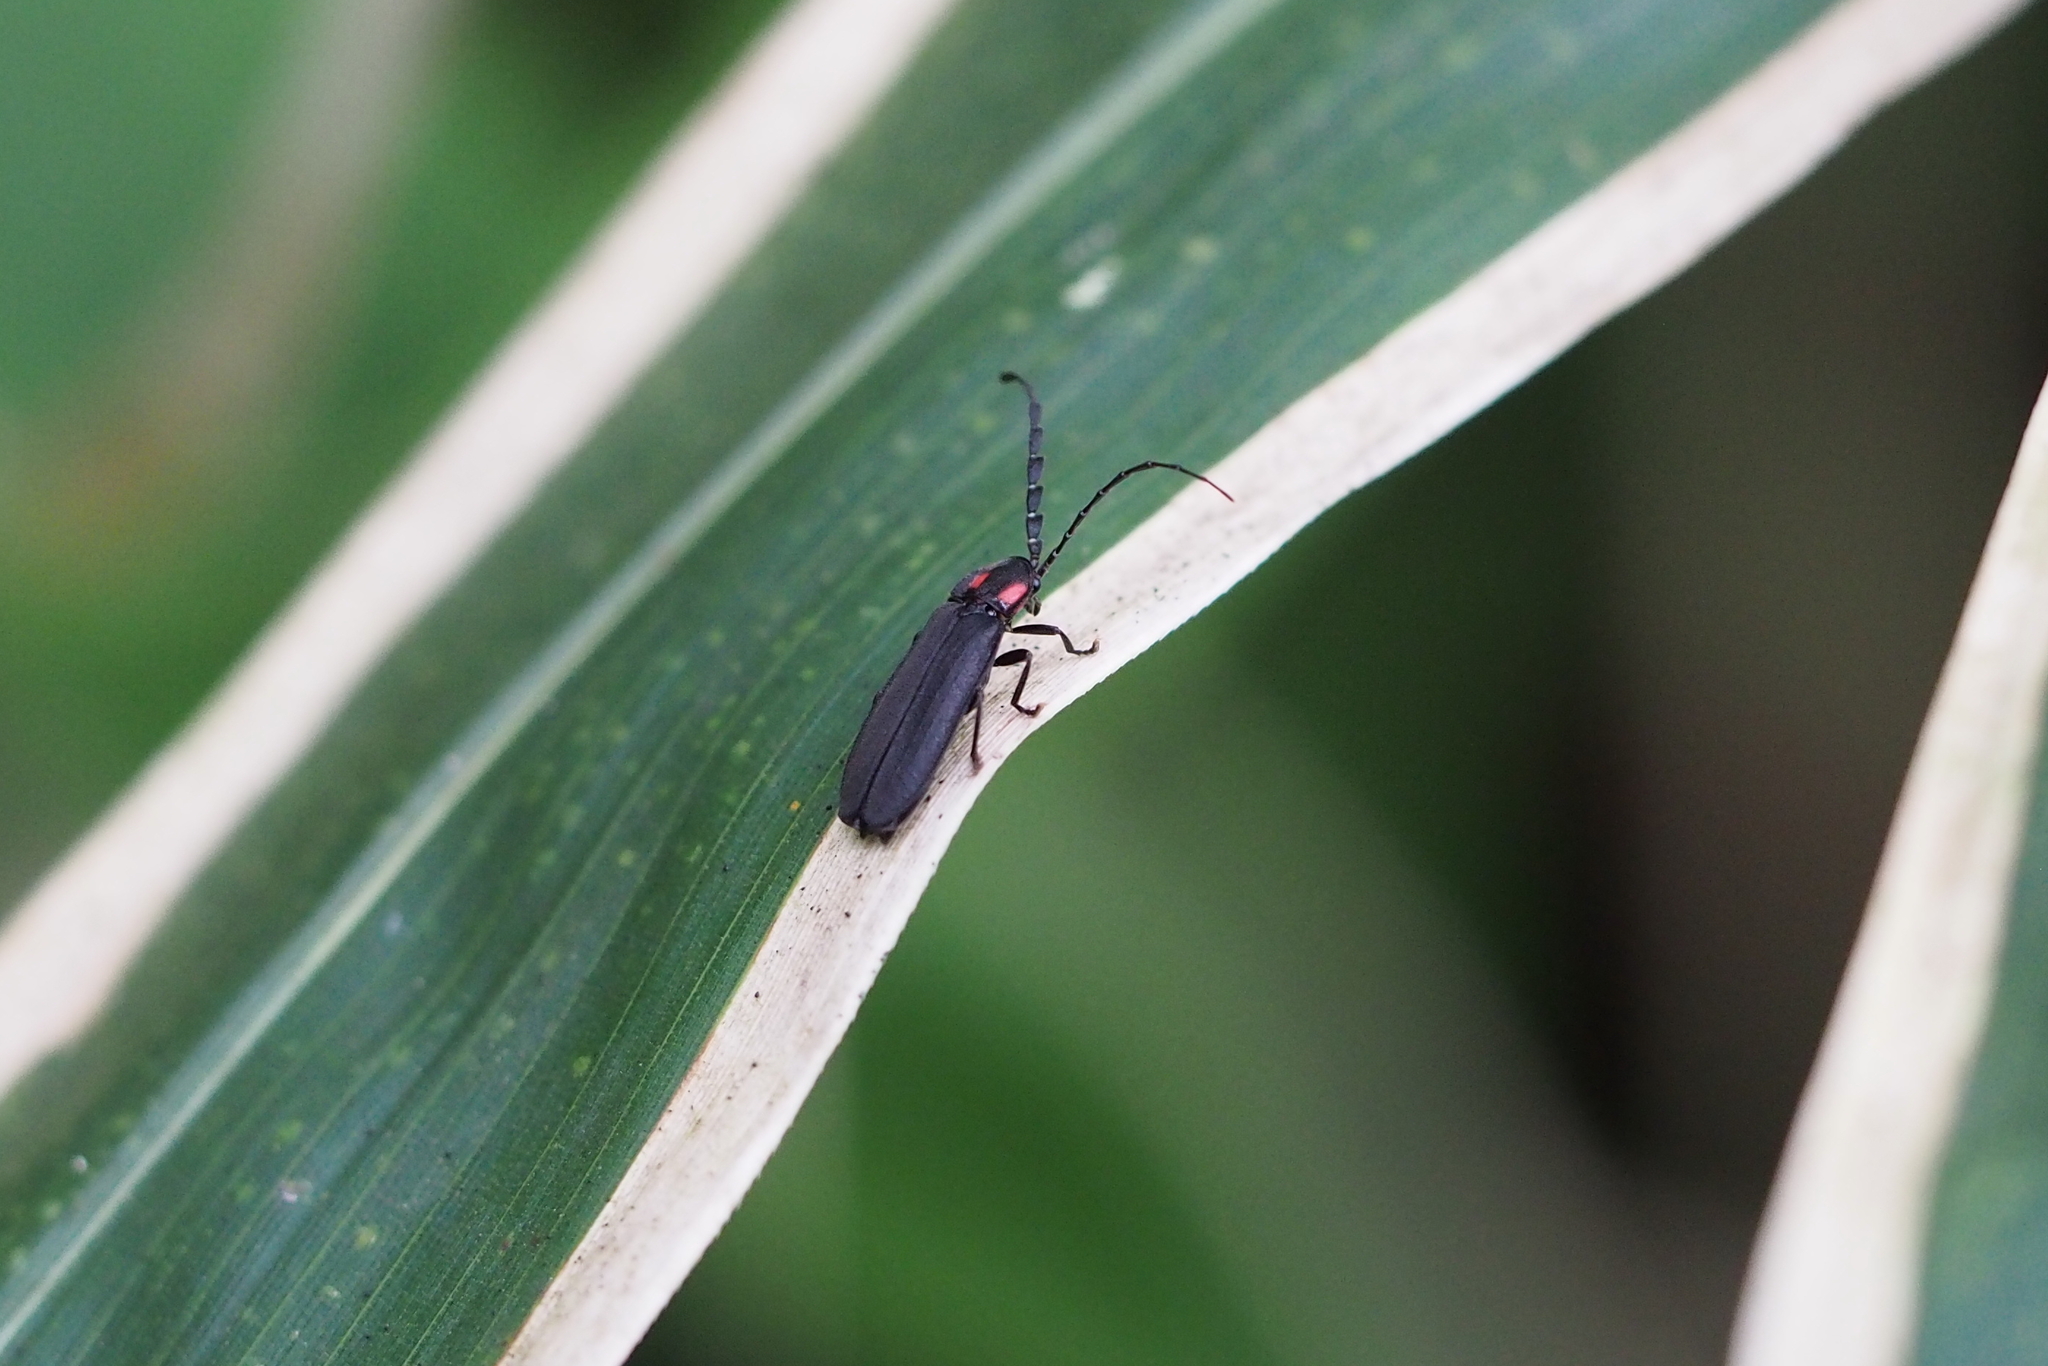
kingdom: Animalia
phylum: Arthropoda
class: Insecta
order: Coleoptera
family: Lampyridae
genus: Lucidina
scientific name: Lucidina biplagiata
